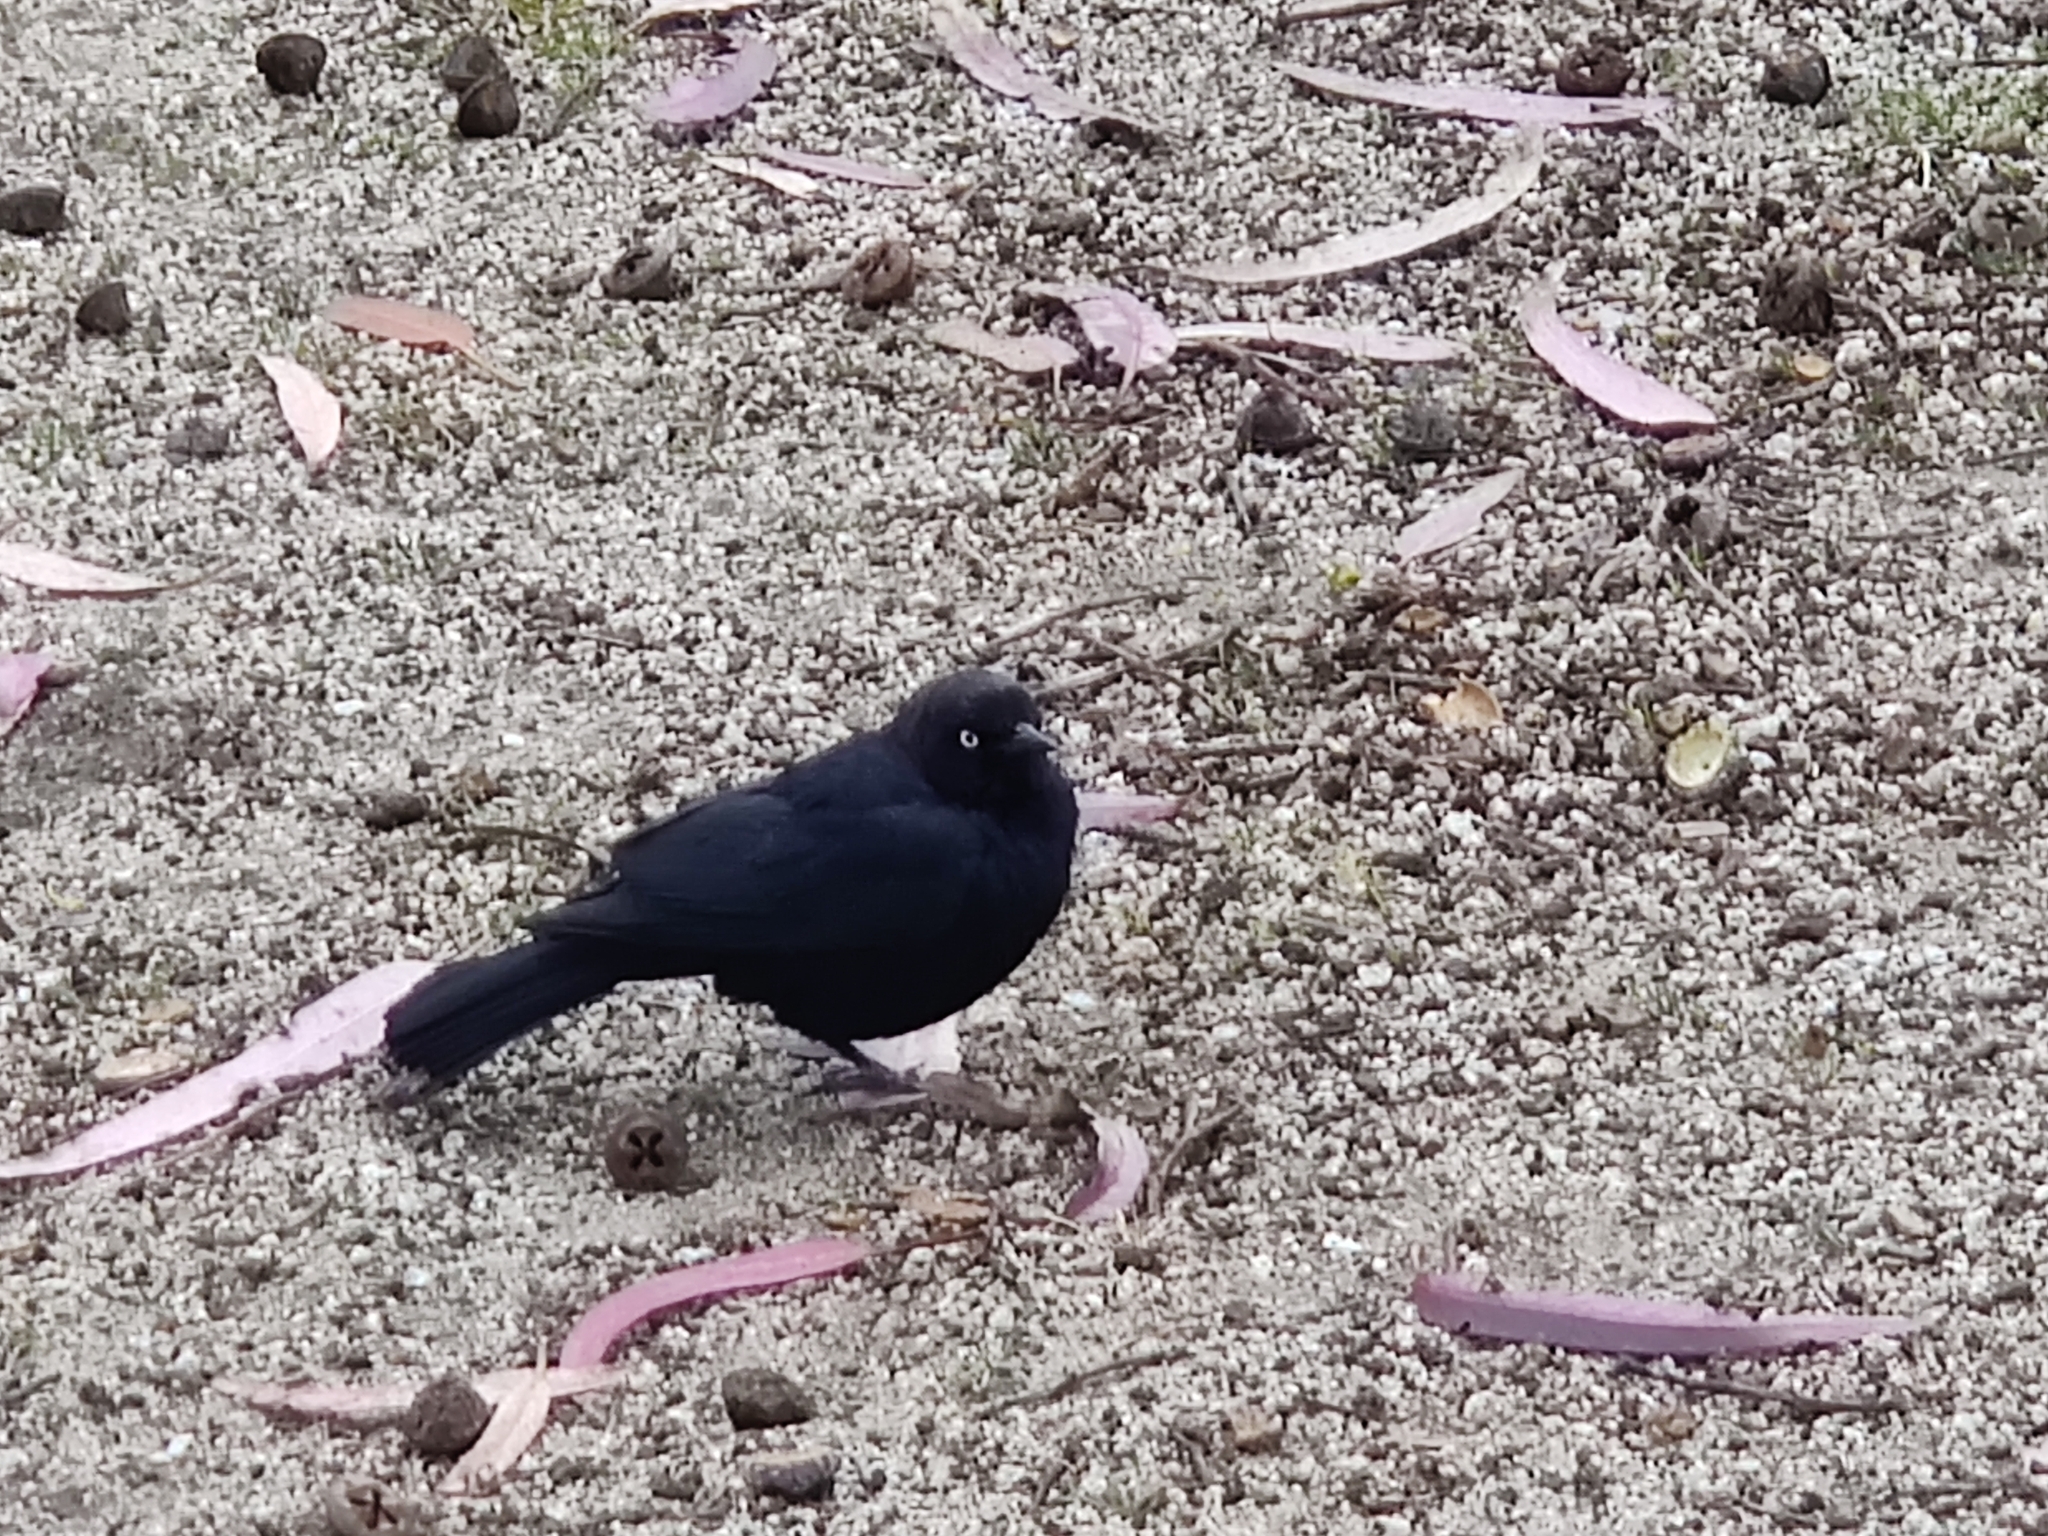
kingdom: Animalia
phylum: Chordata
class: Aves
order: Passeriformes
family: Icteridae
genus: Euphagus
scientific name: Euphagus cyanocephalus
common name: Brewer's blackbird
